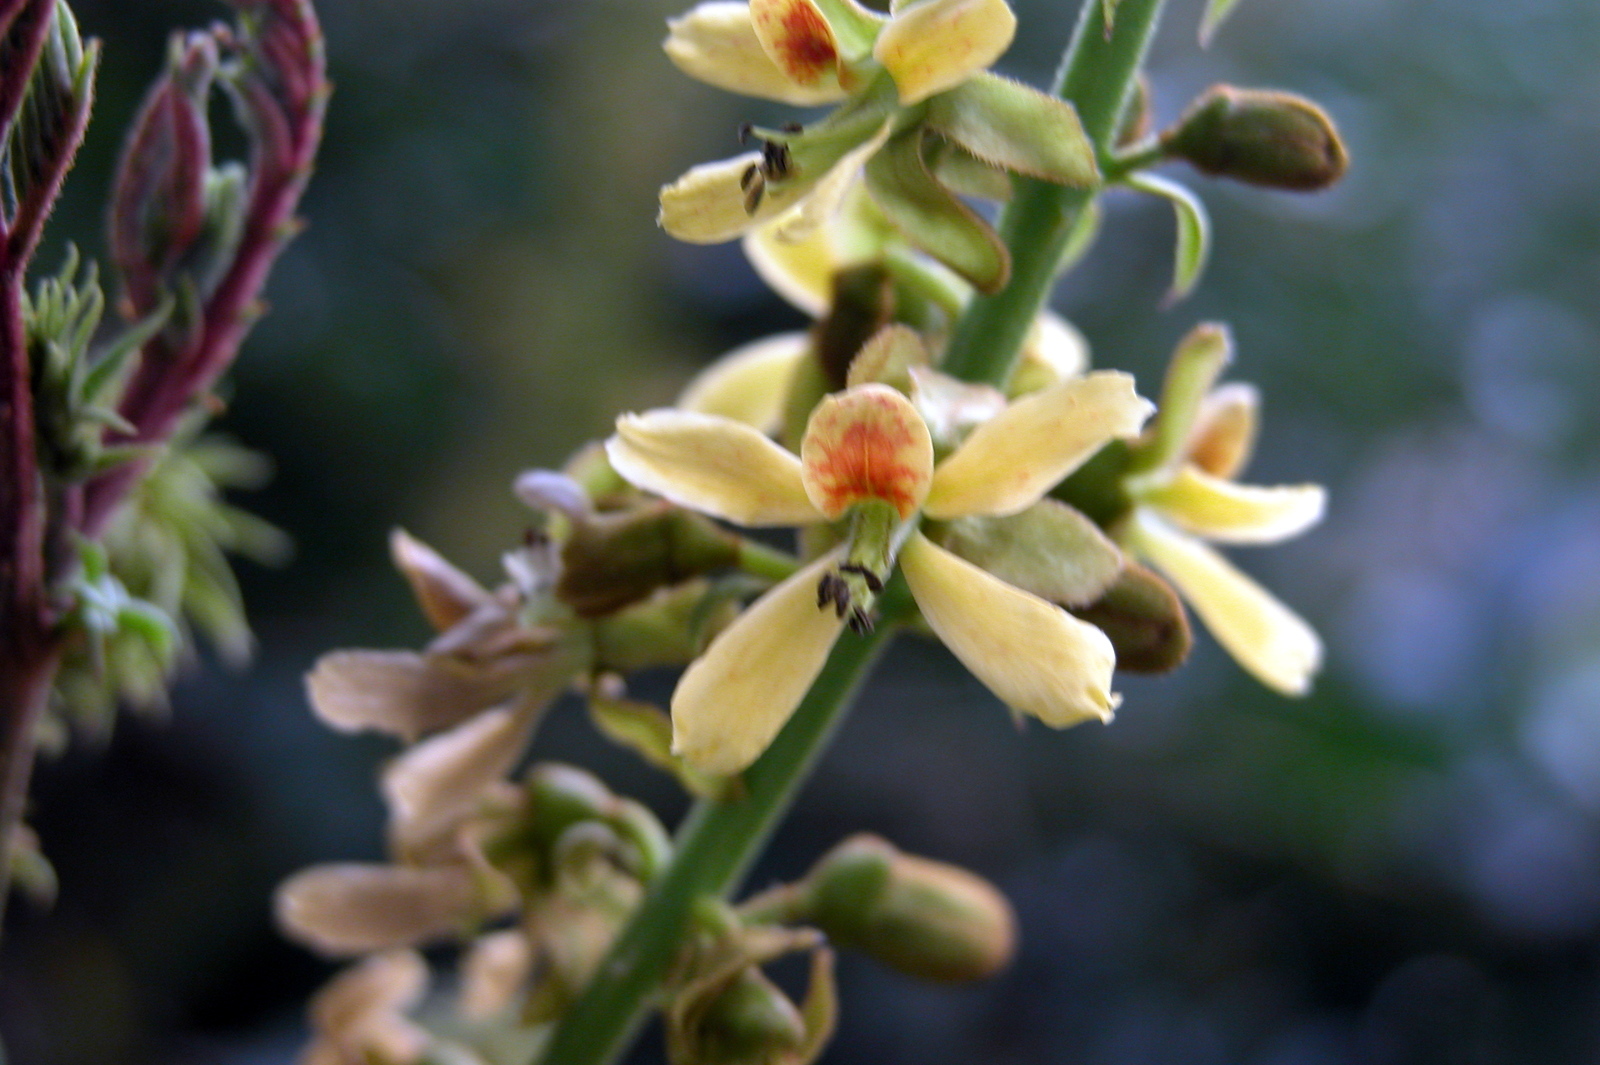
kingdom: Plantae
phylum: Tracheophyta
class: Magnoliopsida
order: Fabales
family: Fabaceae
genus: Guilandina
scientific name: Guilandina bonduc
